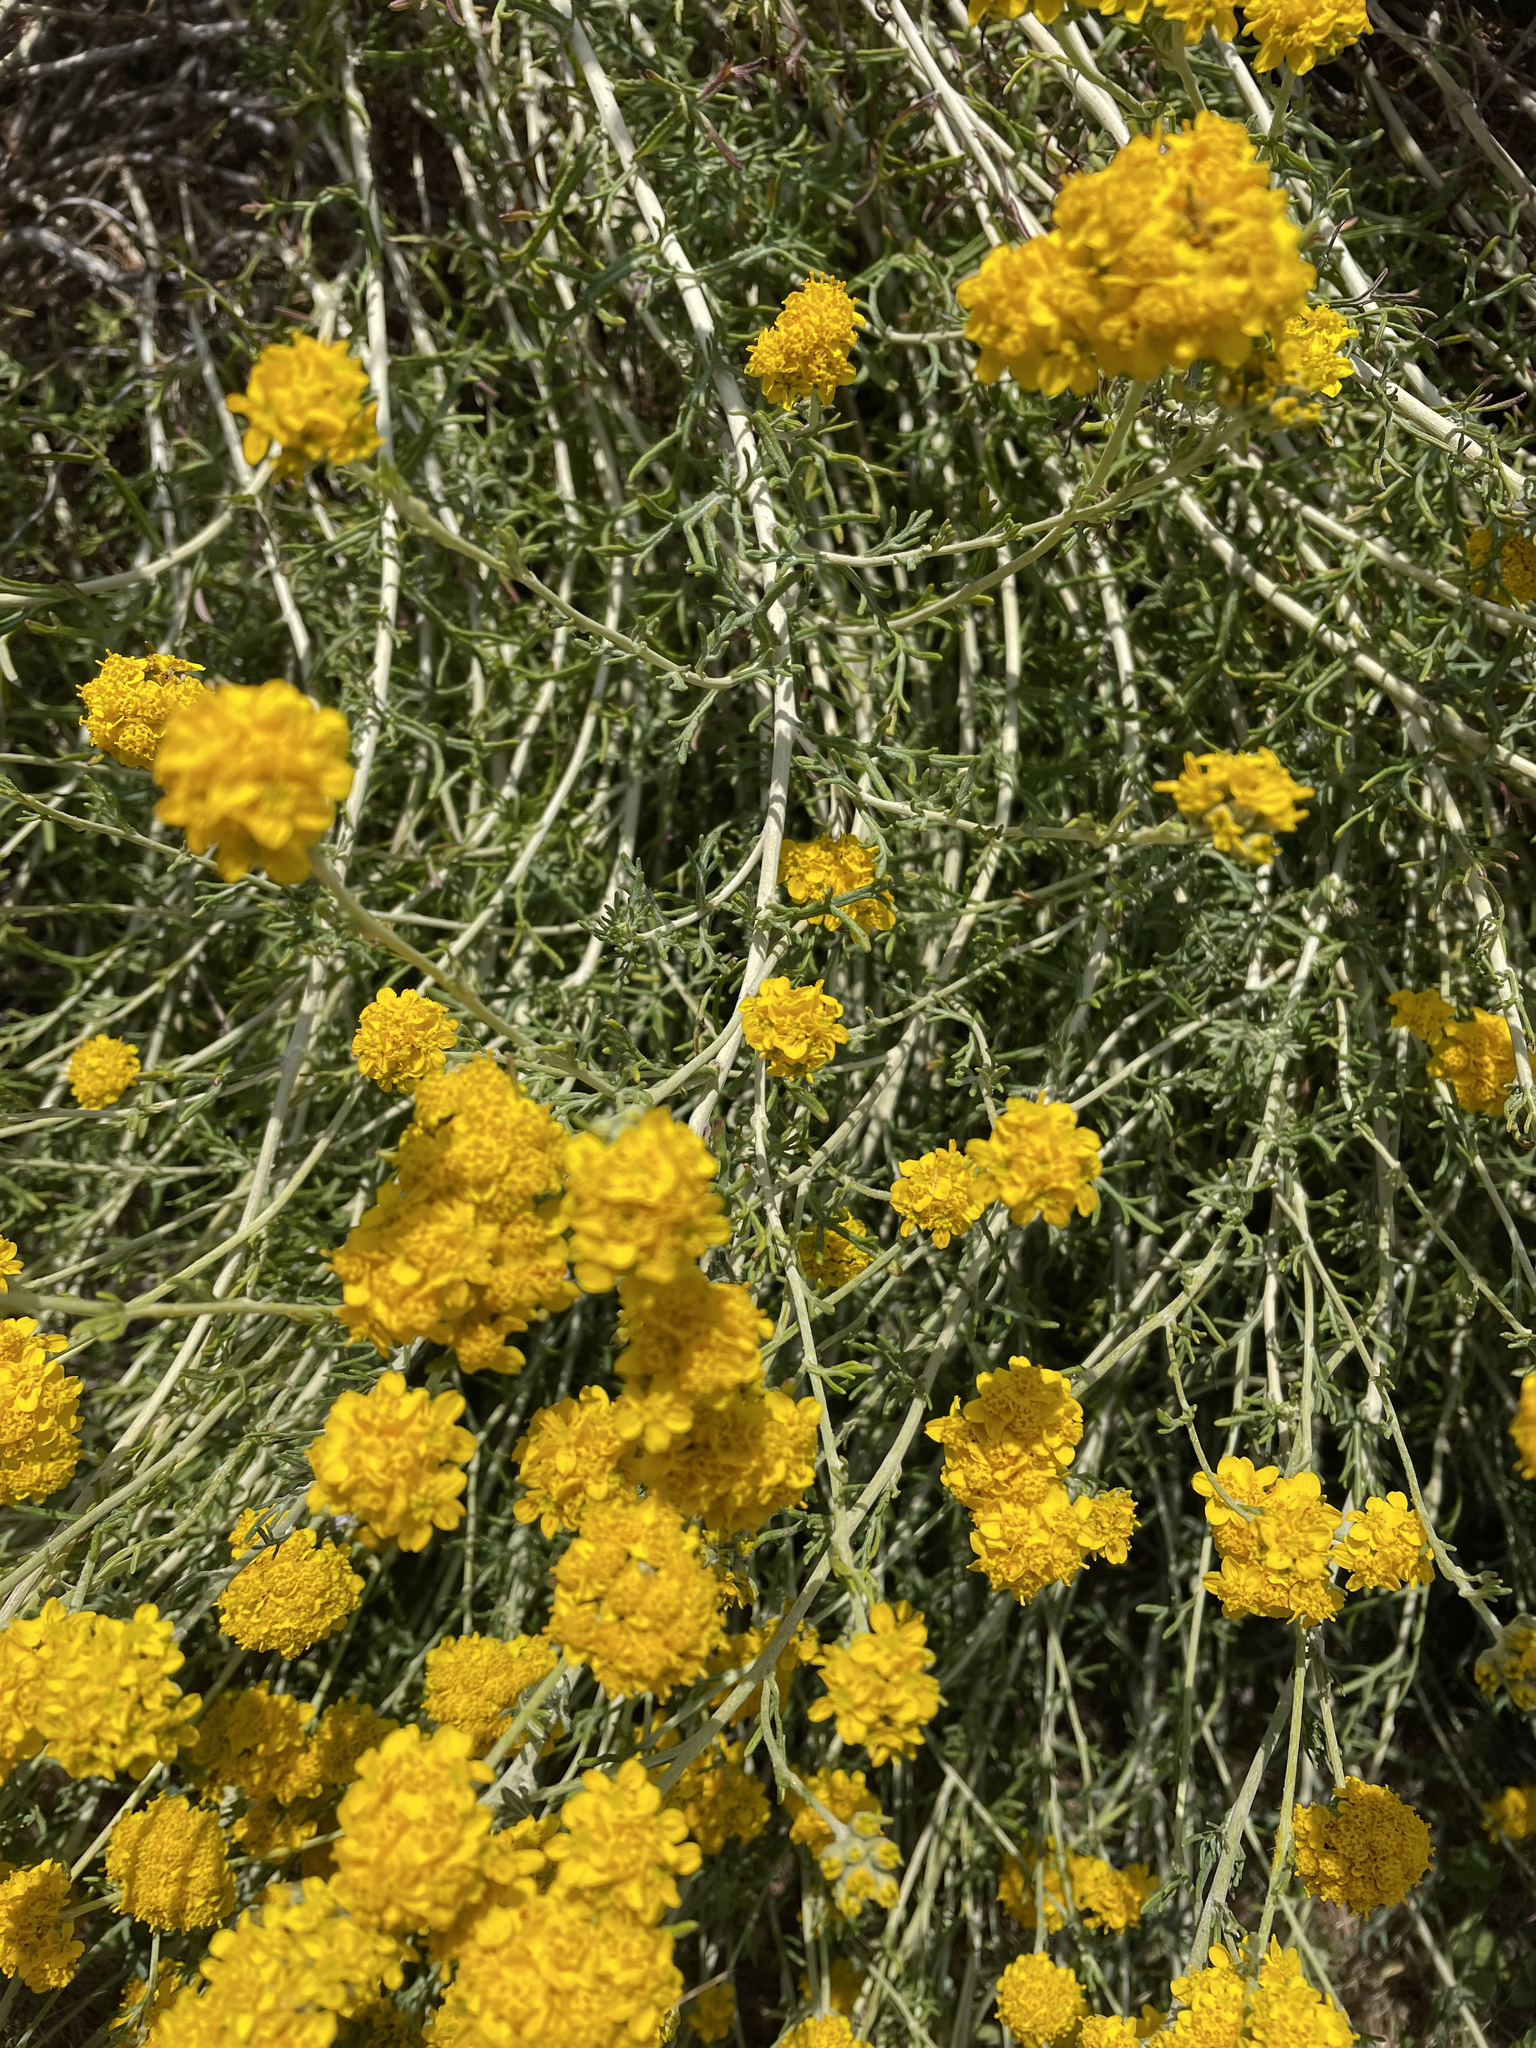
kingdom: Plantae
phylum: Tracheophyta
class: Magnoliopsida
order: Asterales
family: Asteraceae
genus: Eriophyllum
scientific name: Eriophyllum confertiflorum
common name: Golden-yarrow
